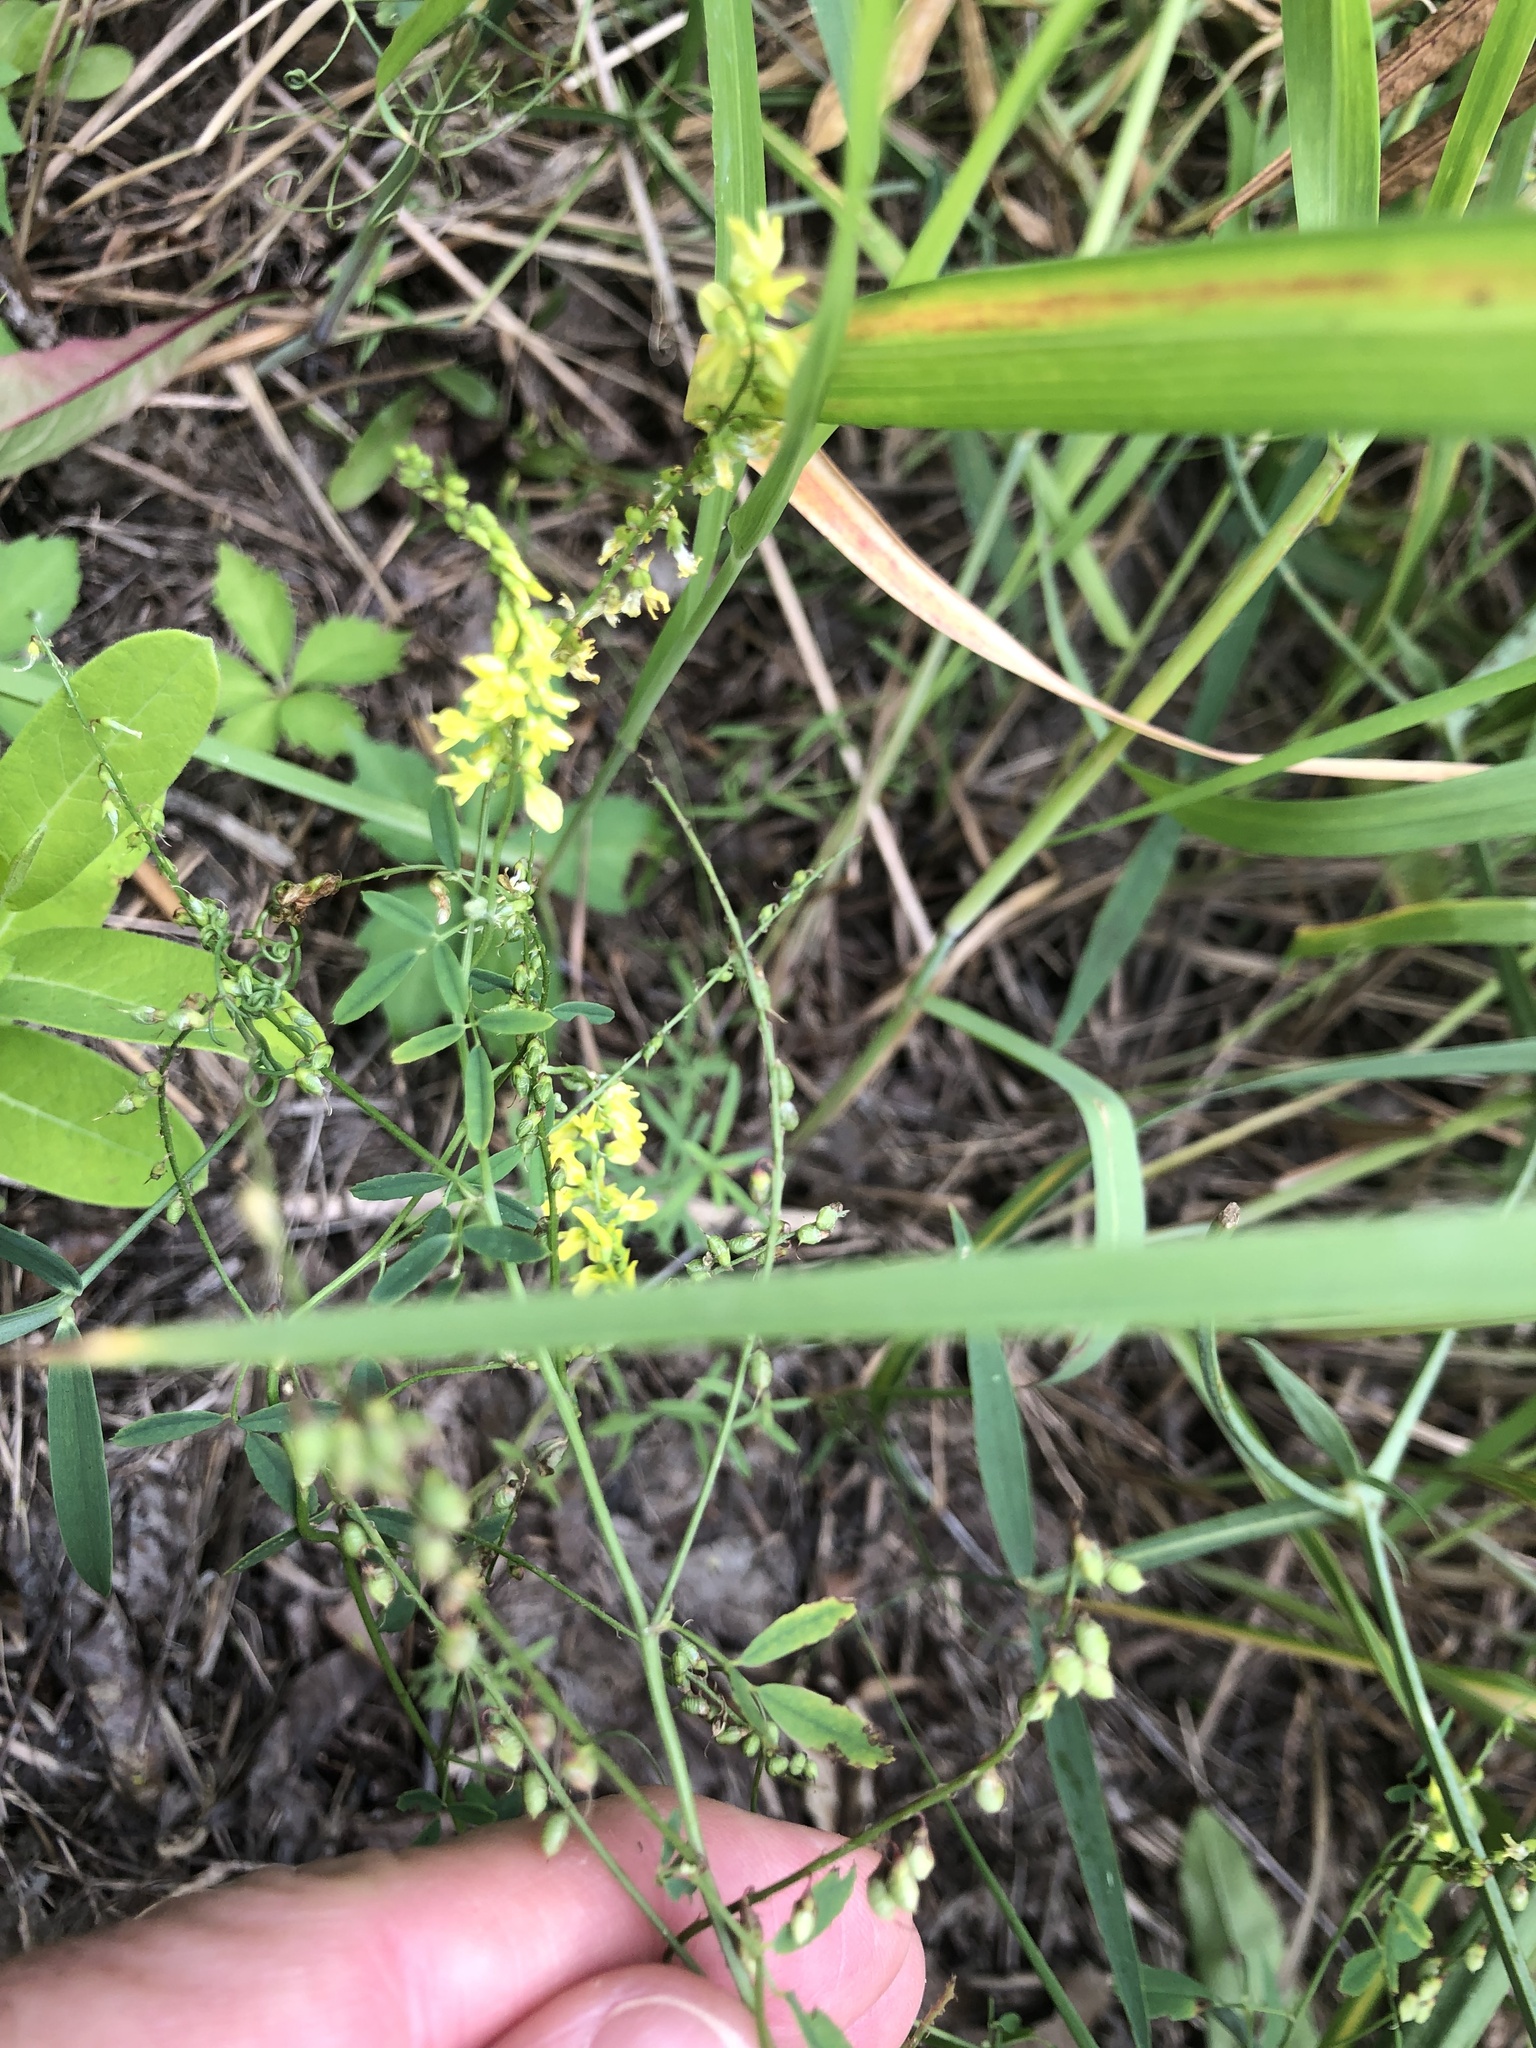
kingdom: Plantae
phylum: Tracheophyta
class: Magnoliopsida
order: Fabales
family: Fabaceae
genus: Melilotus
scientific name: Melilotus officinalis
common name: Sweetclover
